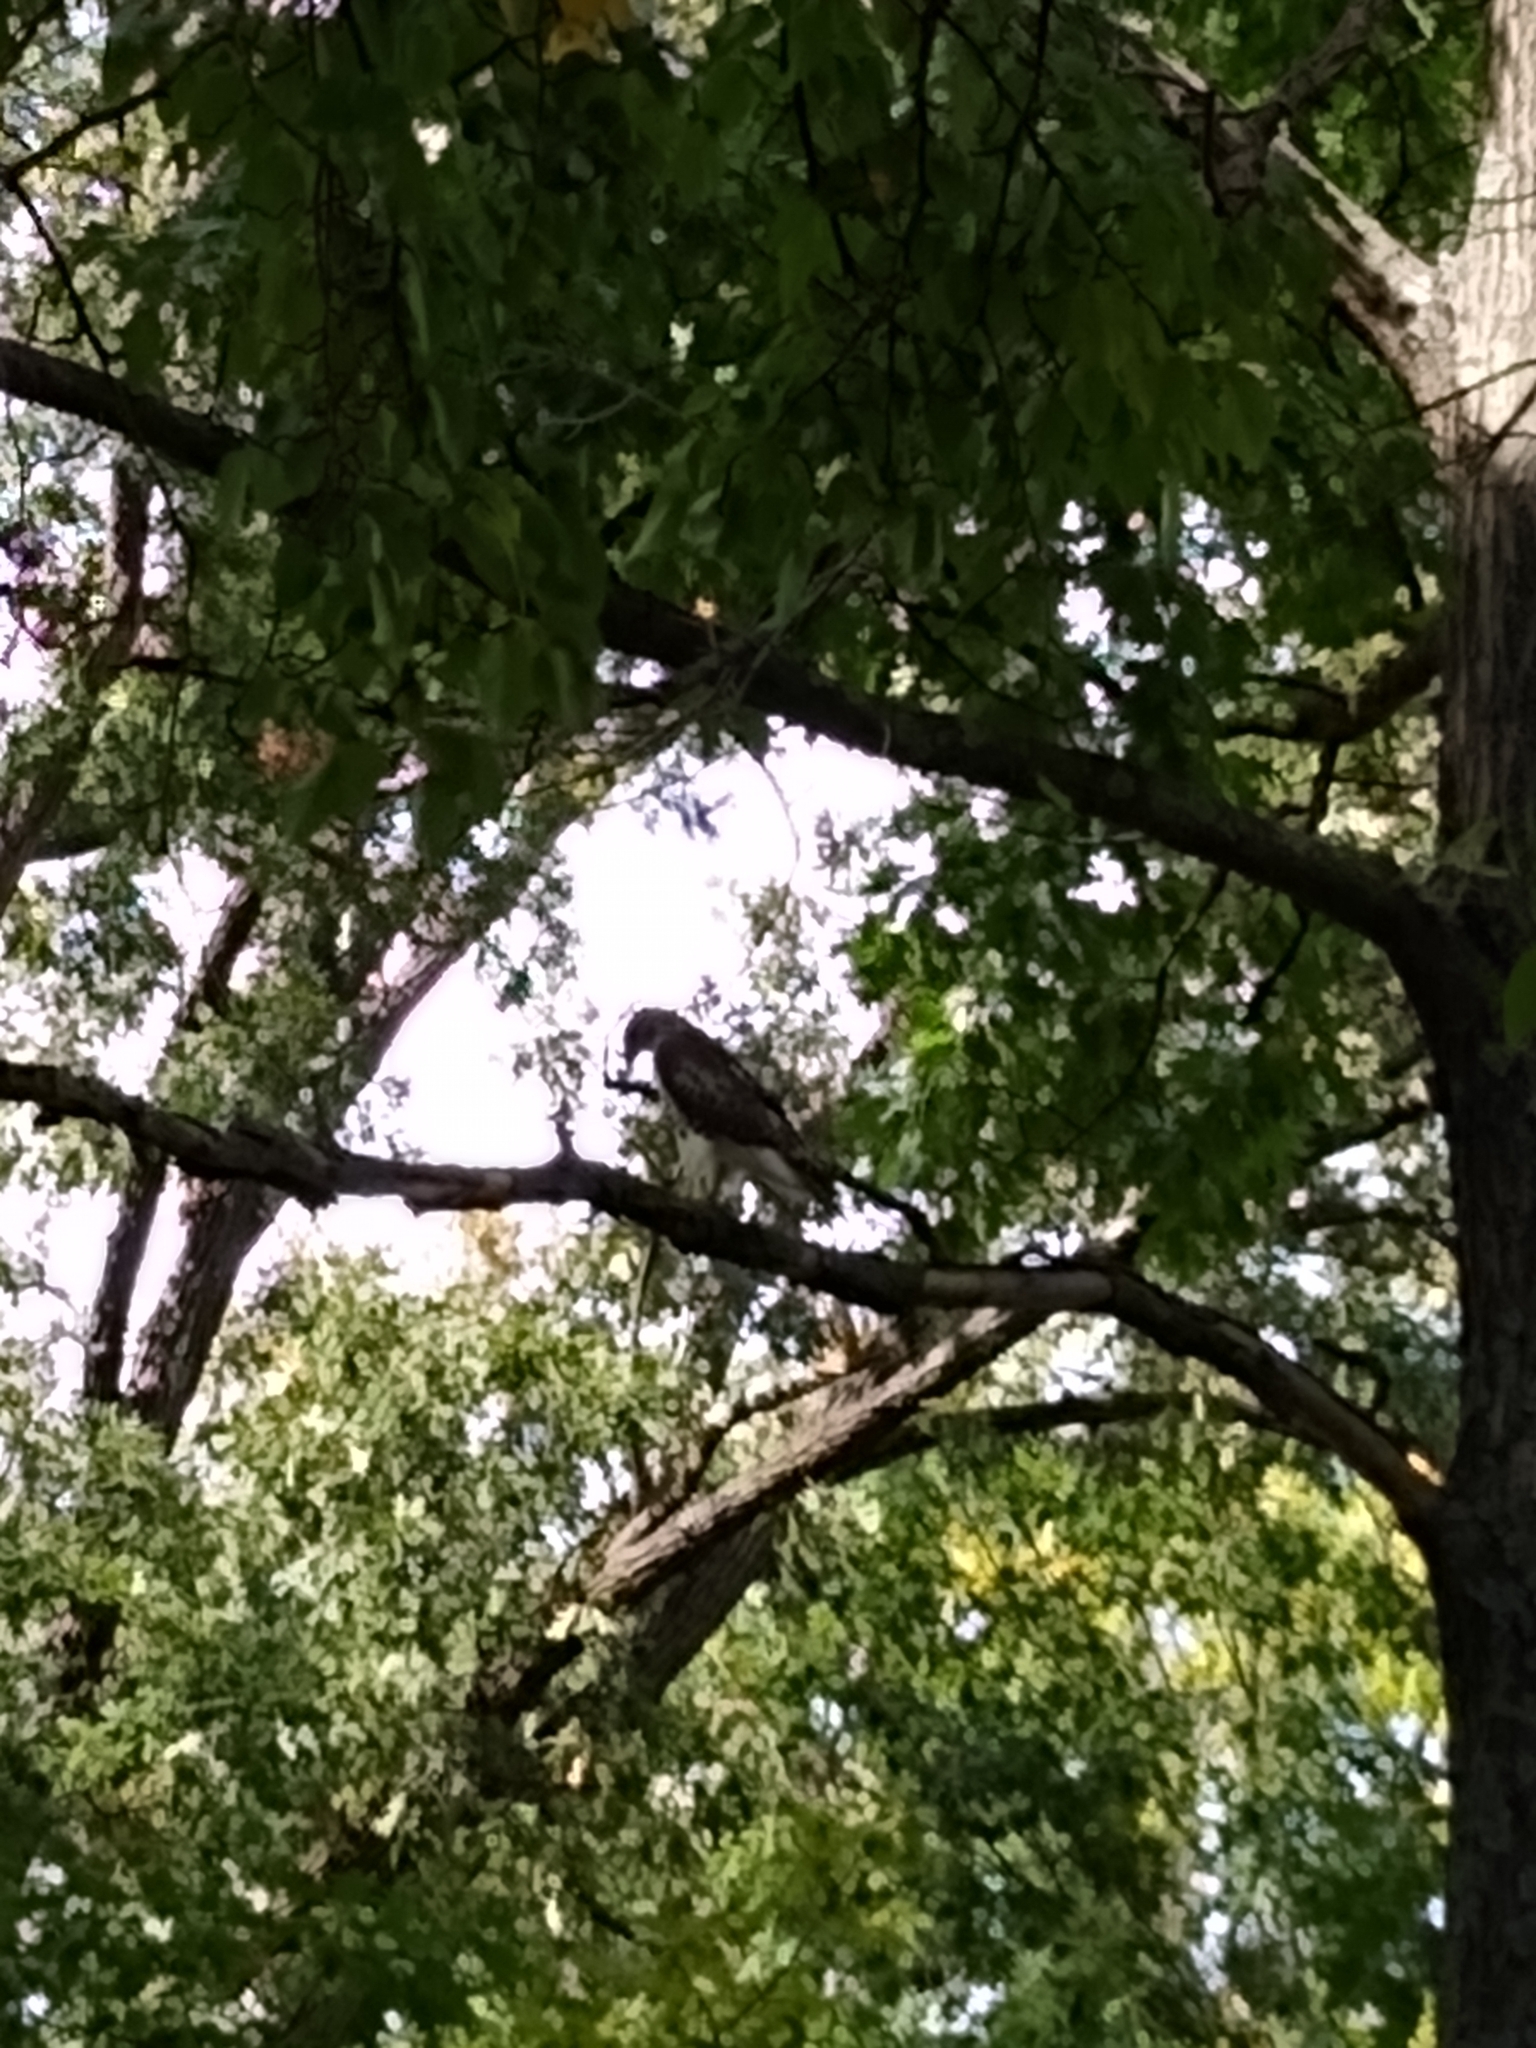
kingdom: Animalia
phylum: Chordata
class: Aves
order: Accipitriformes
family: Accipitridae
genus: Buteo
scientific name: Buteo jamaicensis
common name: Red-tailed hawk
